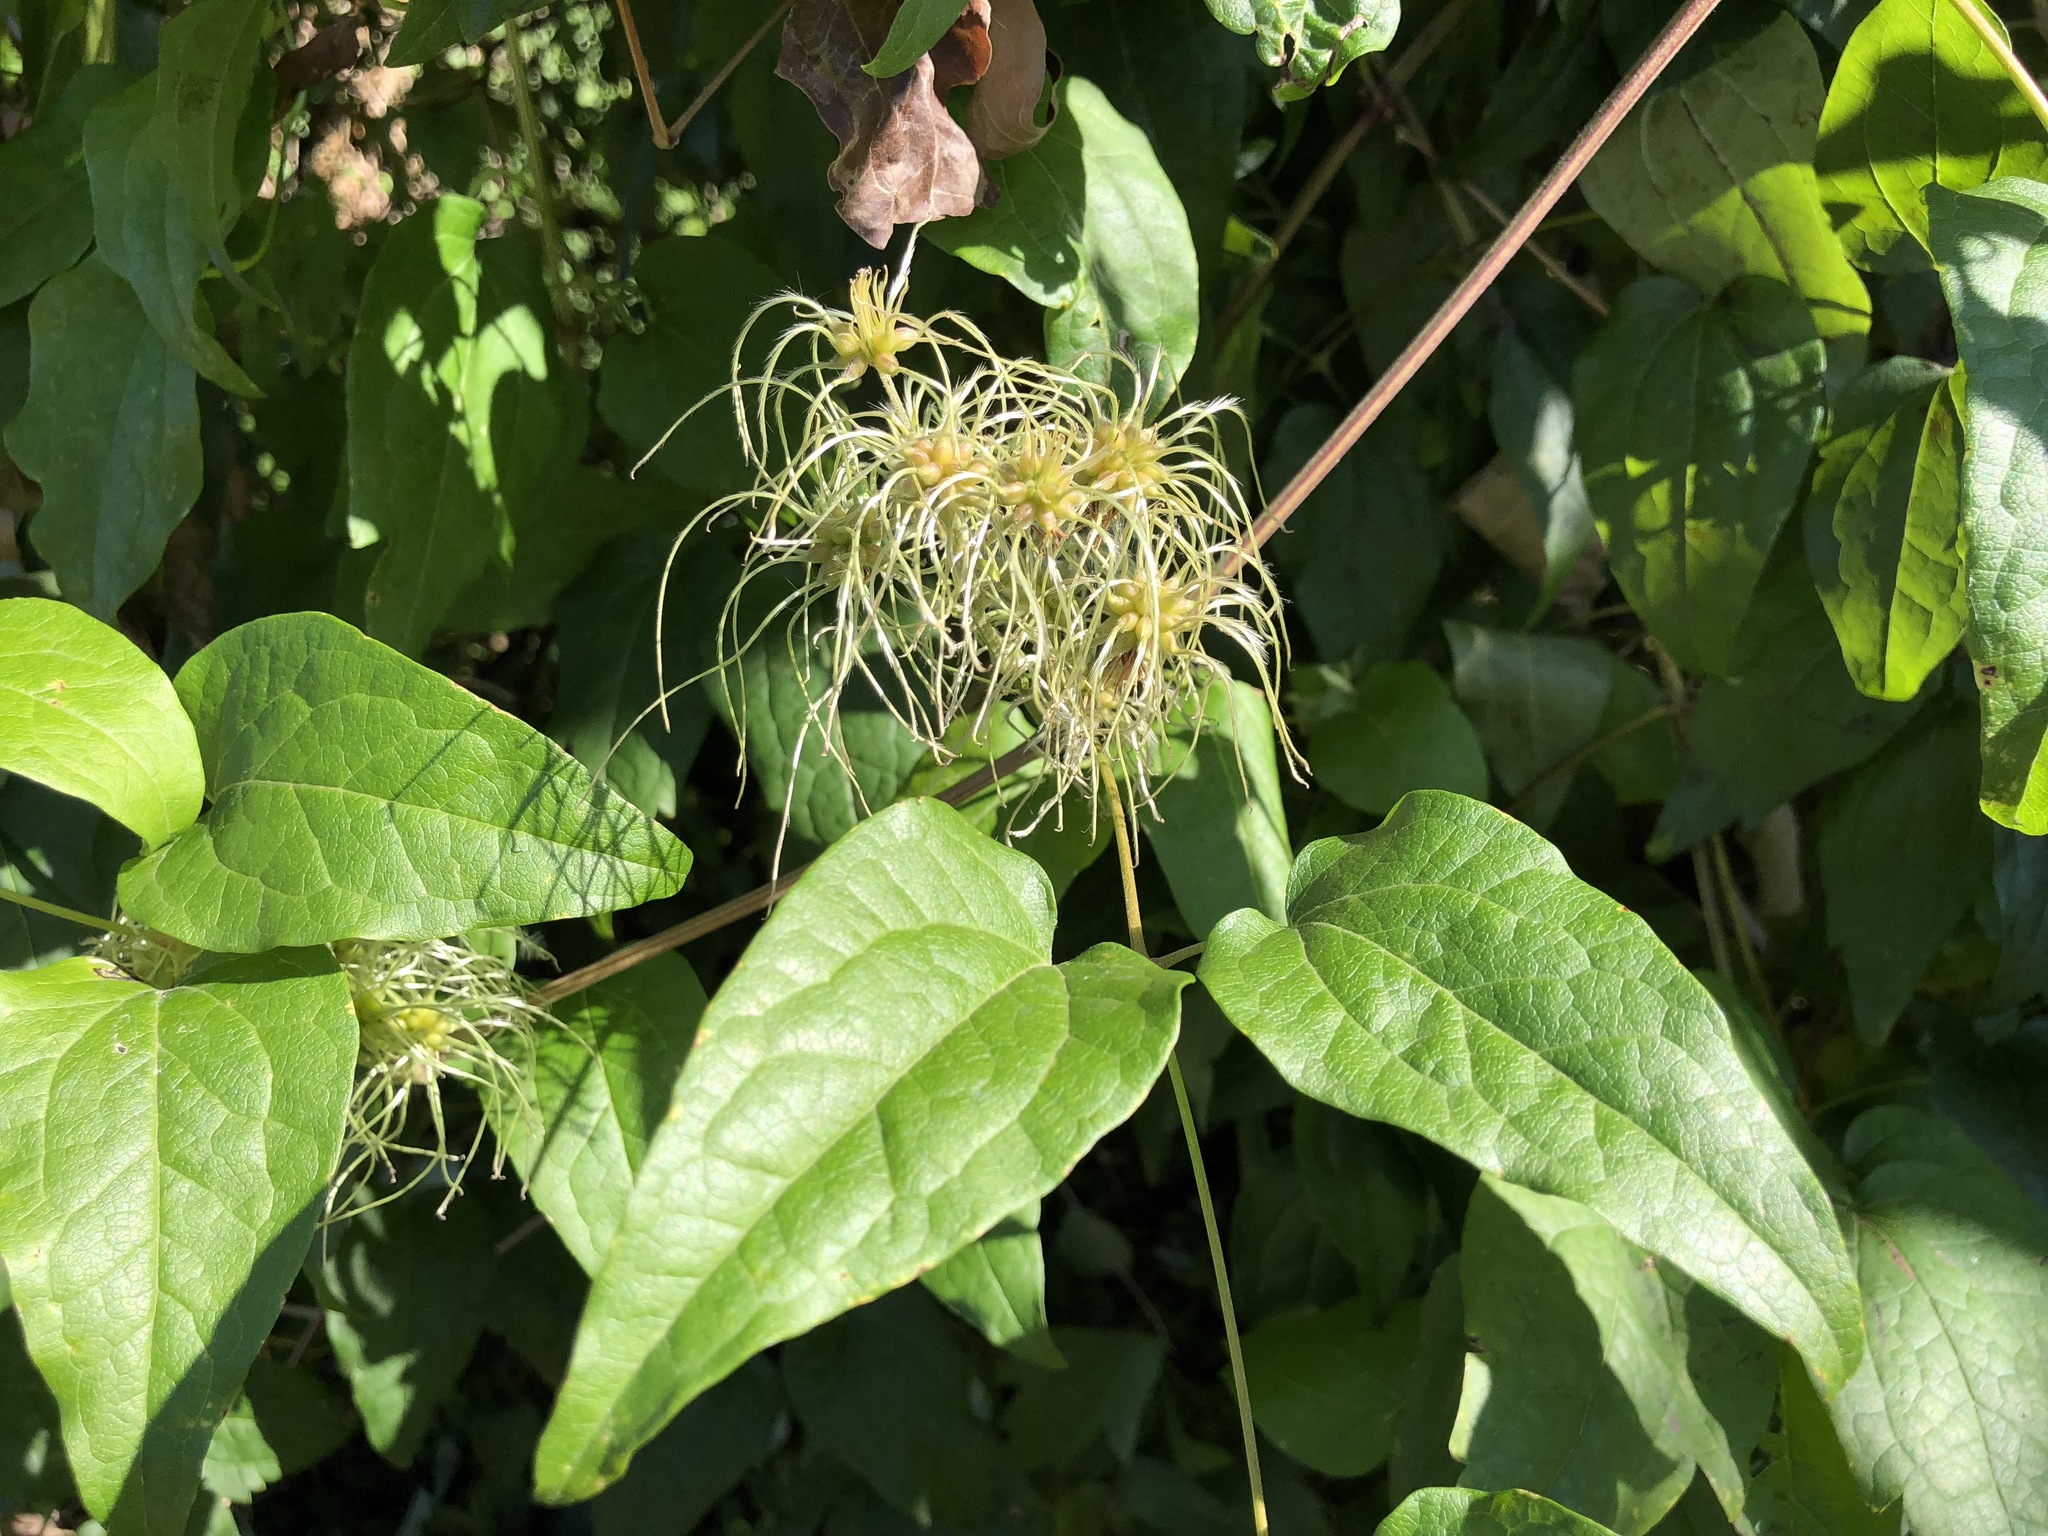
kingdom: Plantae
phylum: Tracheophyta
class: Magnoliopsida
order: Ranunculales
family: Ranunculaceae
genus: Clematis
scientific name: Clematis vitalba
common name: Evergreen clematis
